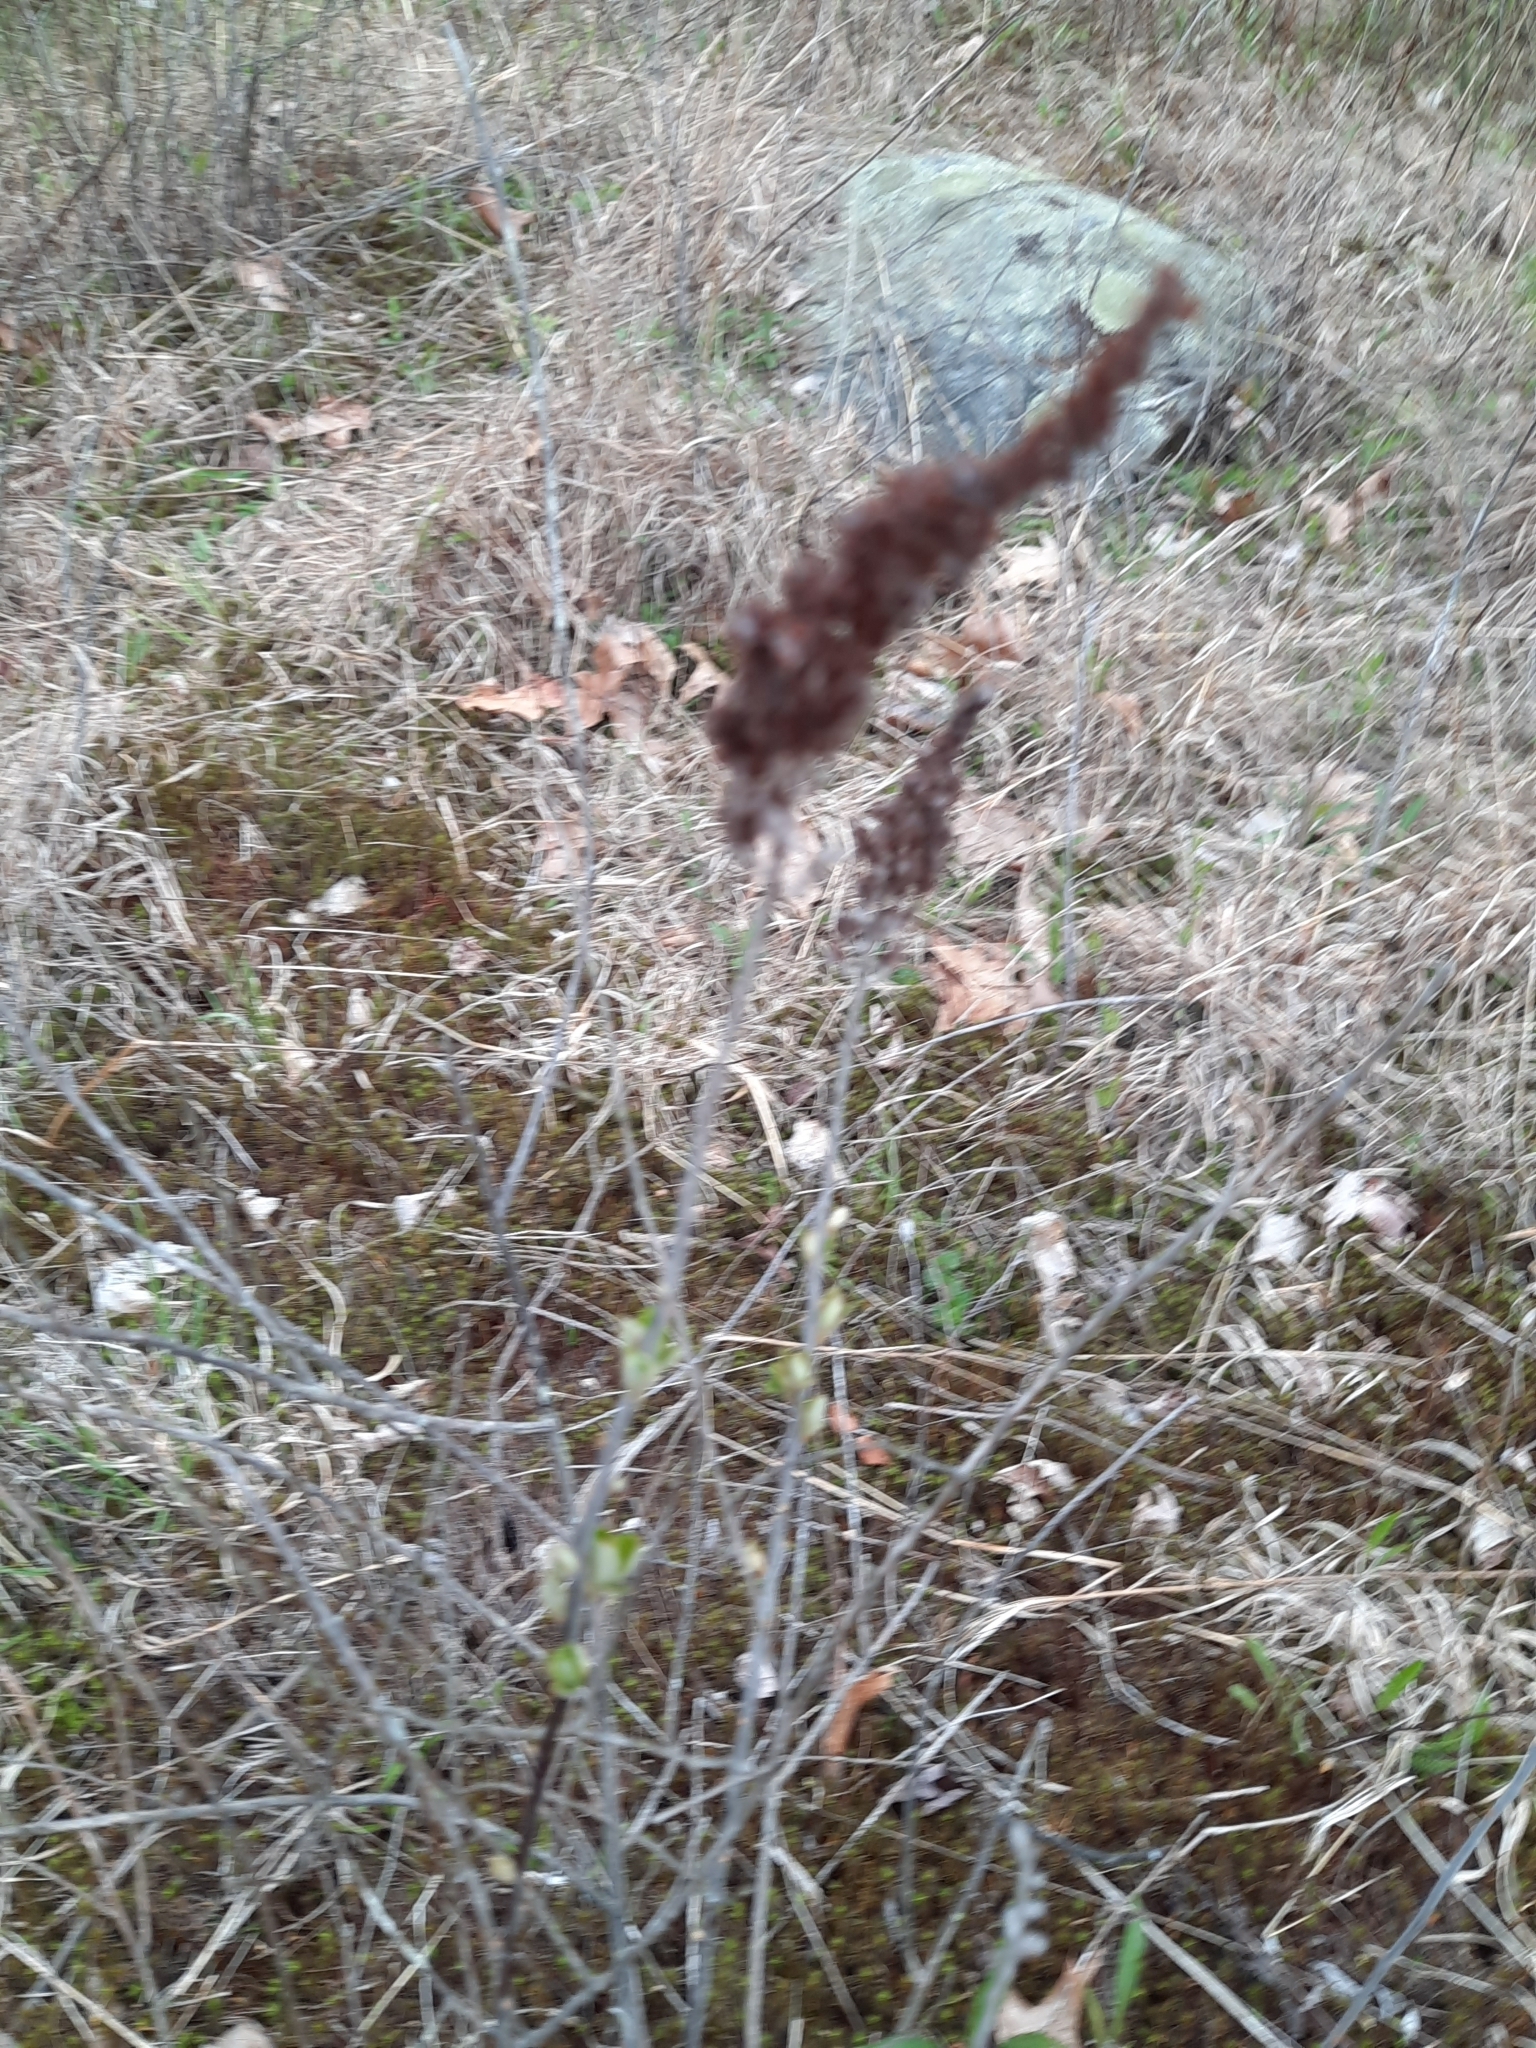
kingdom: Plantae
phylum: Tracheophyta
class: Magnoliopsida
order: Rosales
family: Rosaceae
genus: Spiraea
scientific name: Spiraea tomentosa
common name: Hardhack
